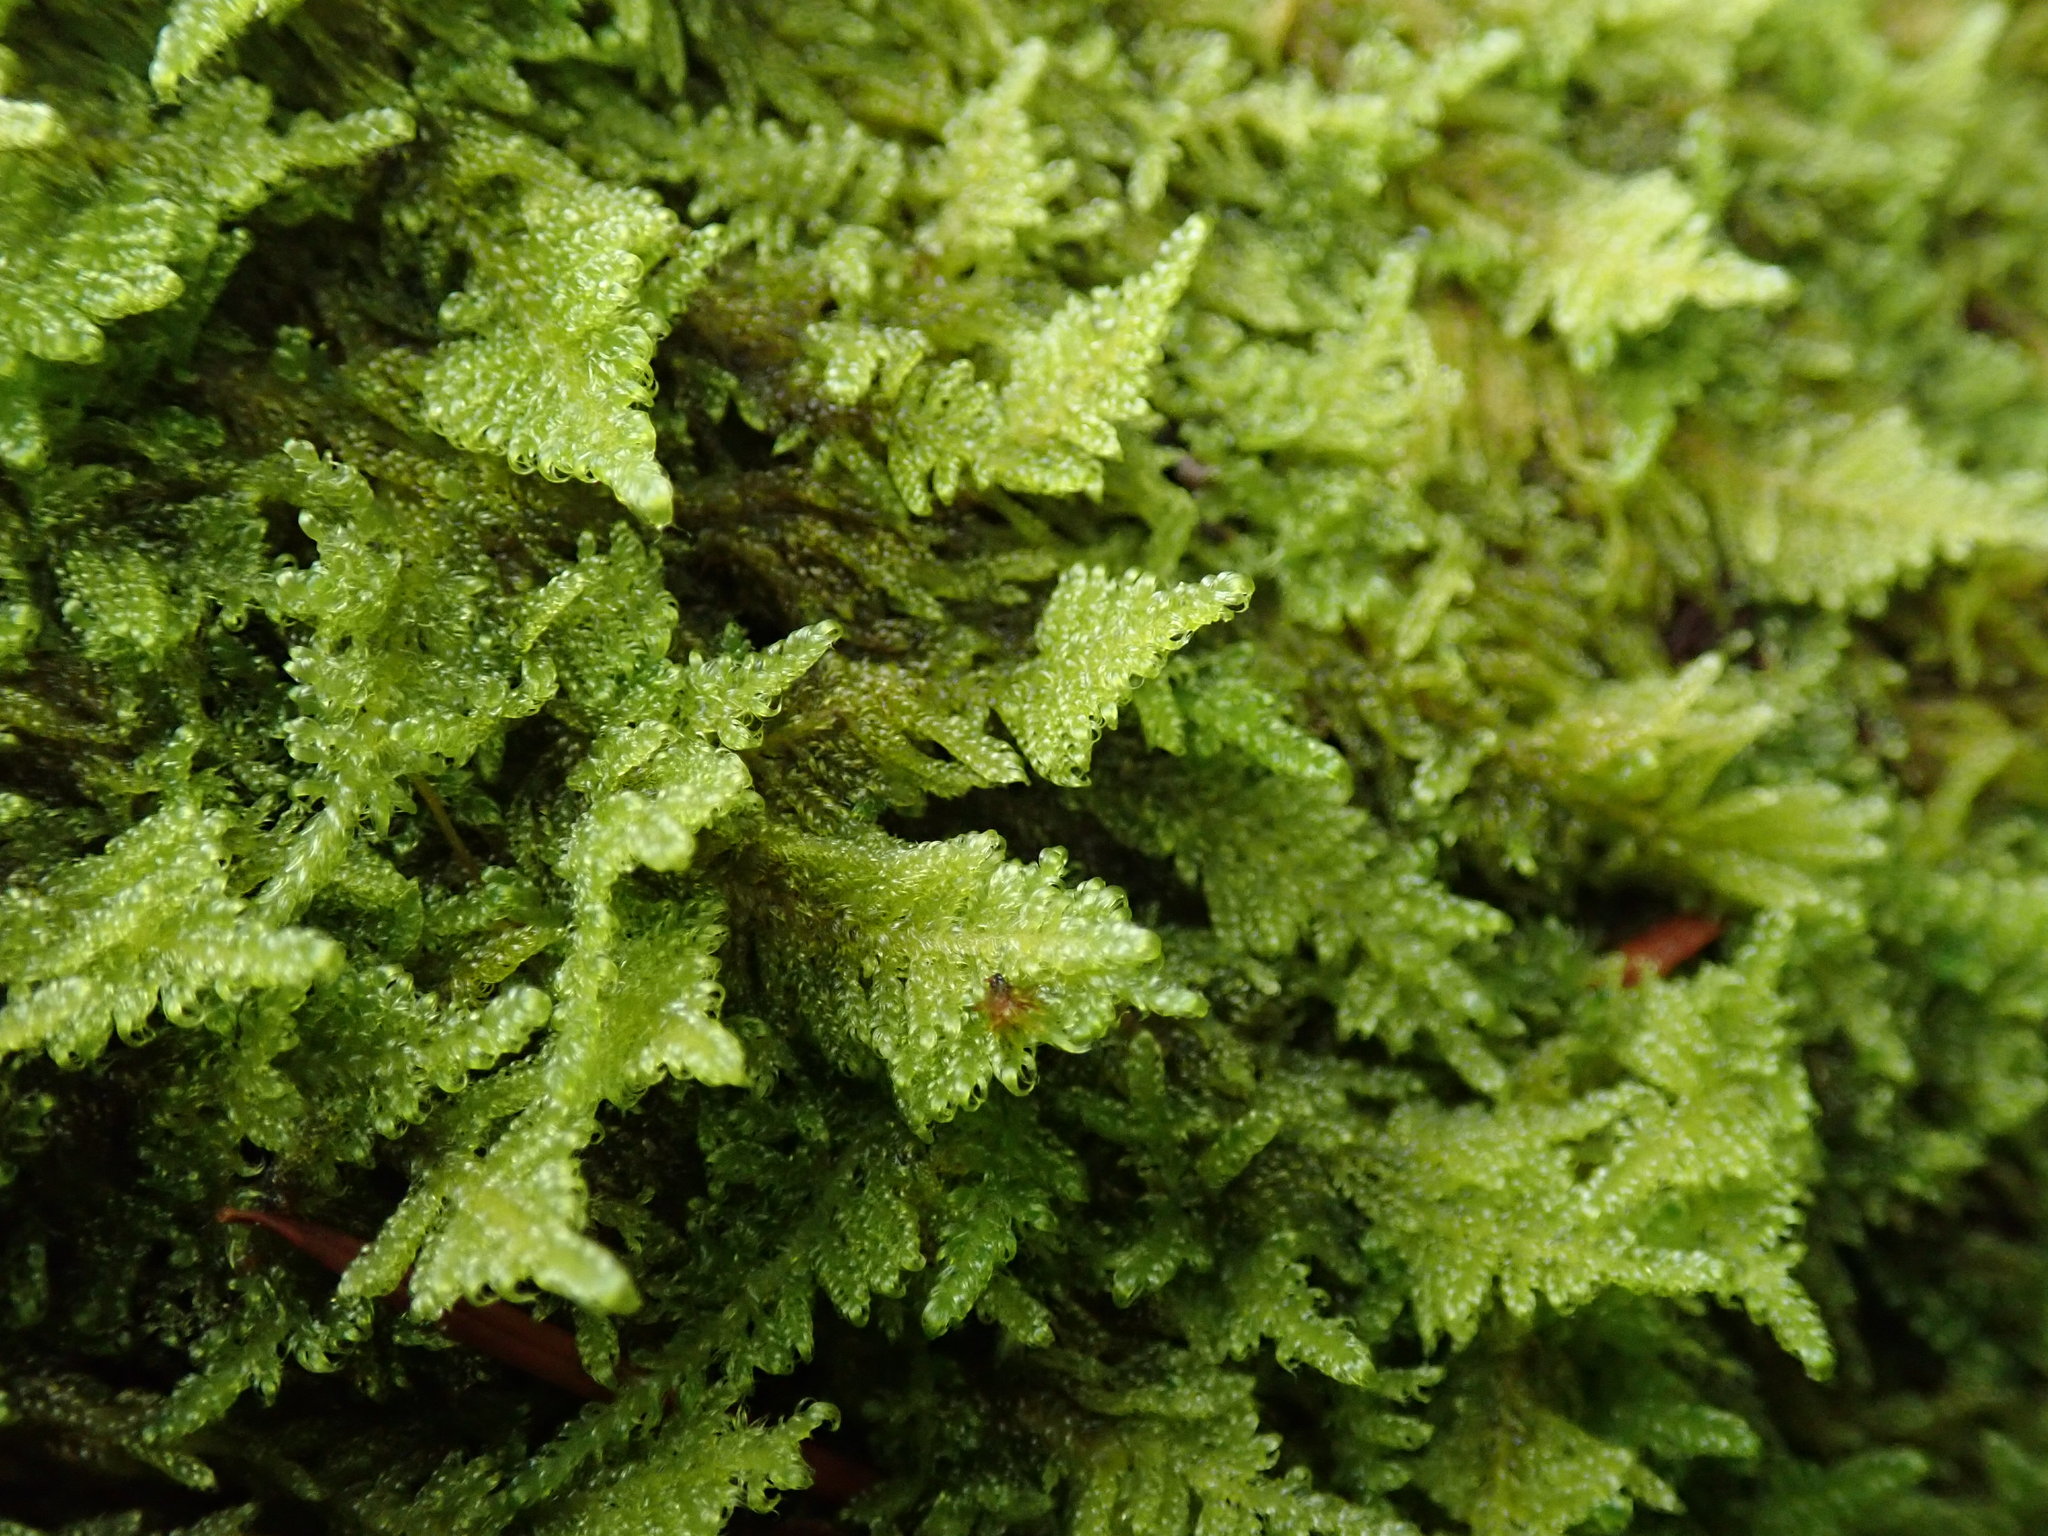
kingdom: Plantae
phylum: Bryophyta
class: Bryopsida
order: Hypnales
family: Stereodontaceae
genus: Stereodon
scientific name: Stereodon subimponens
